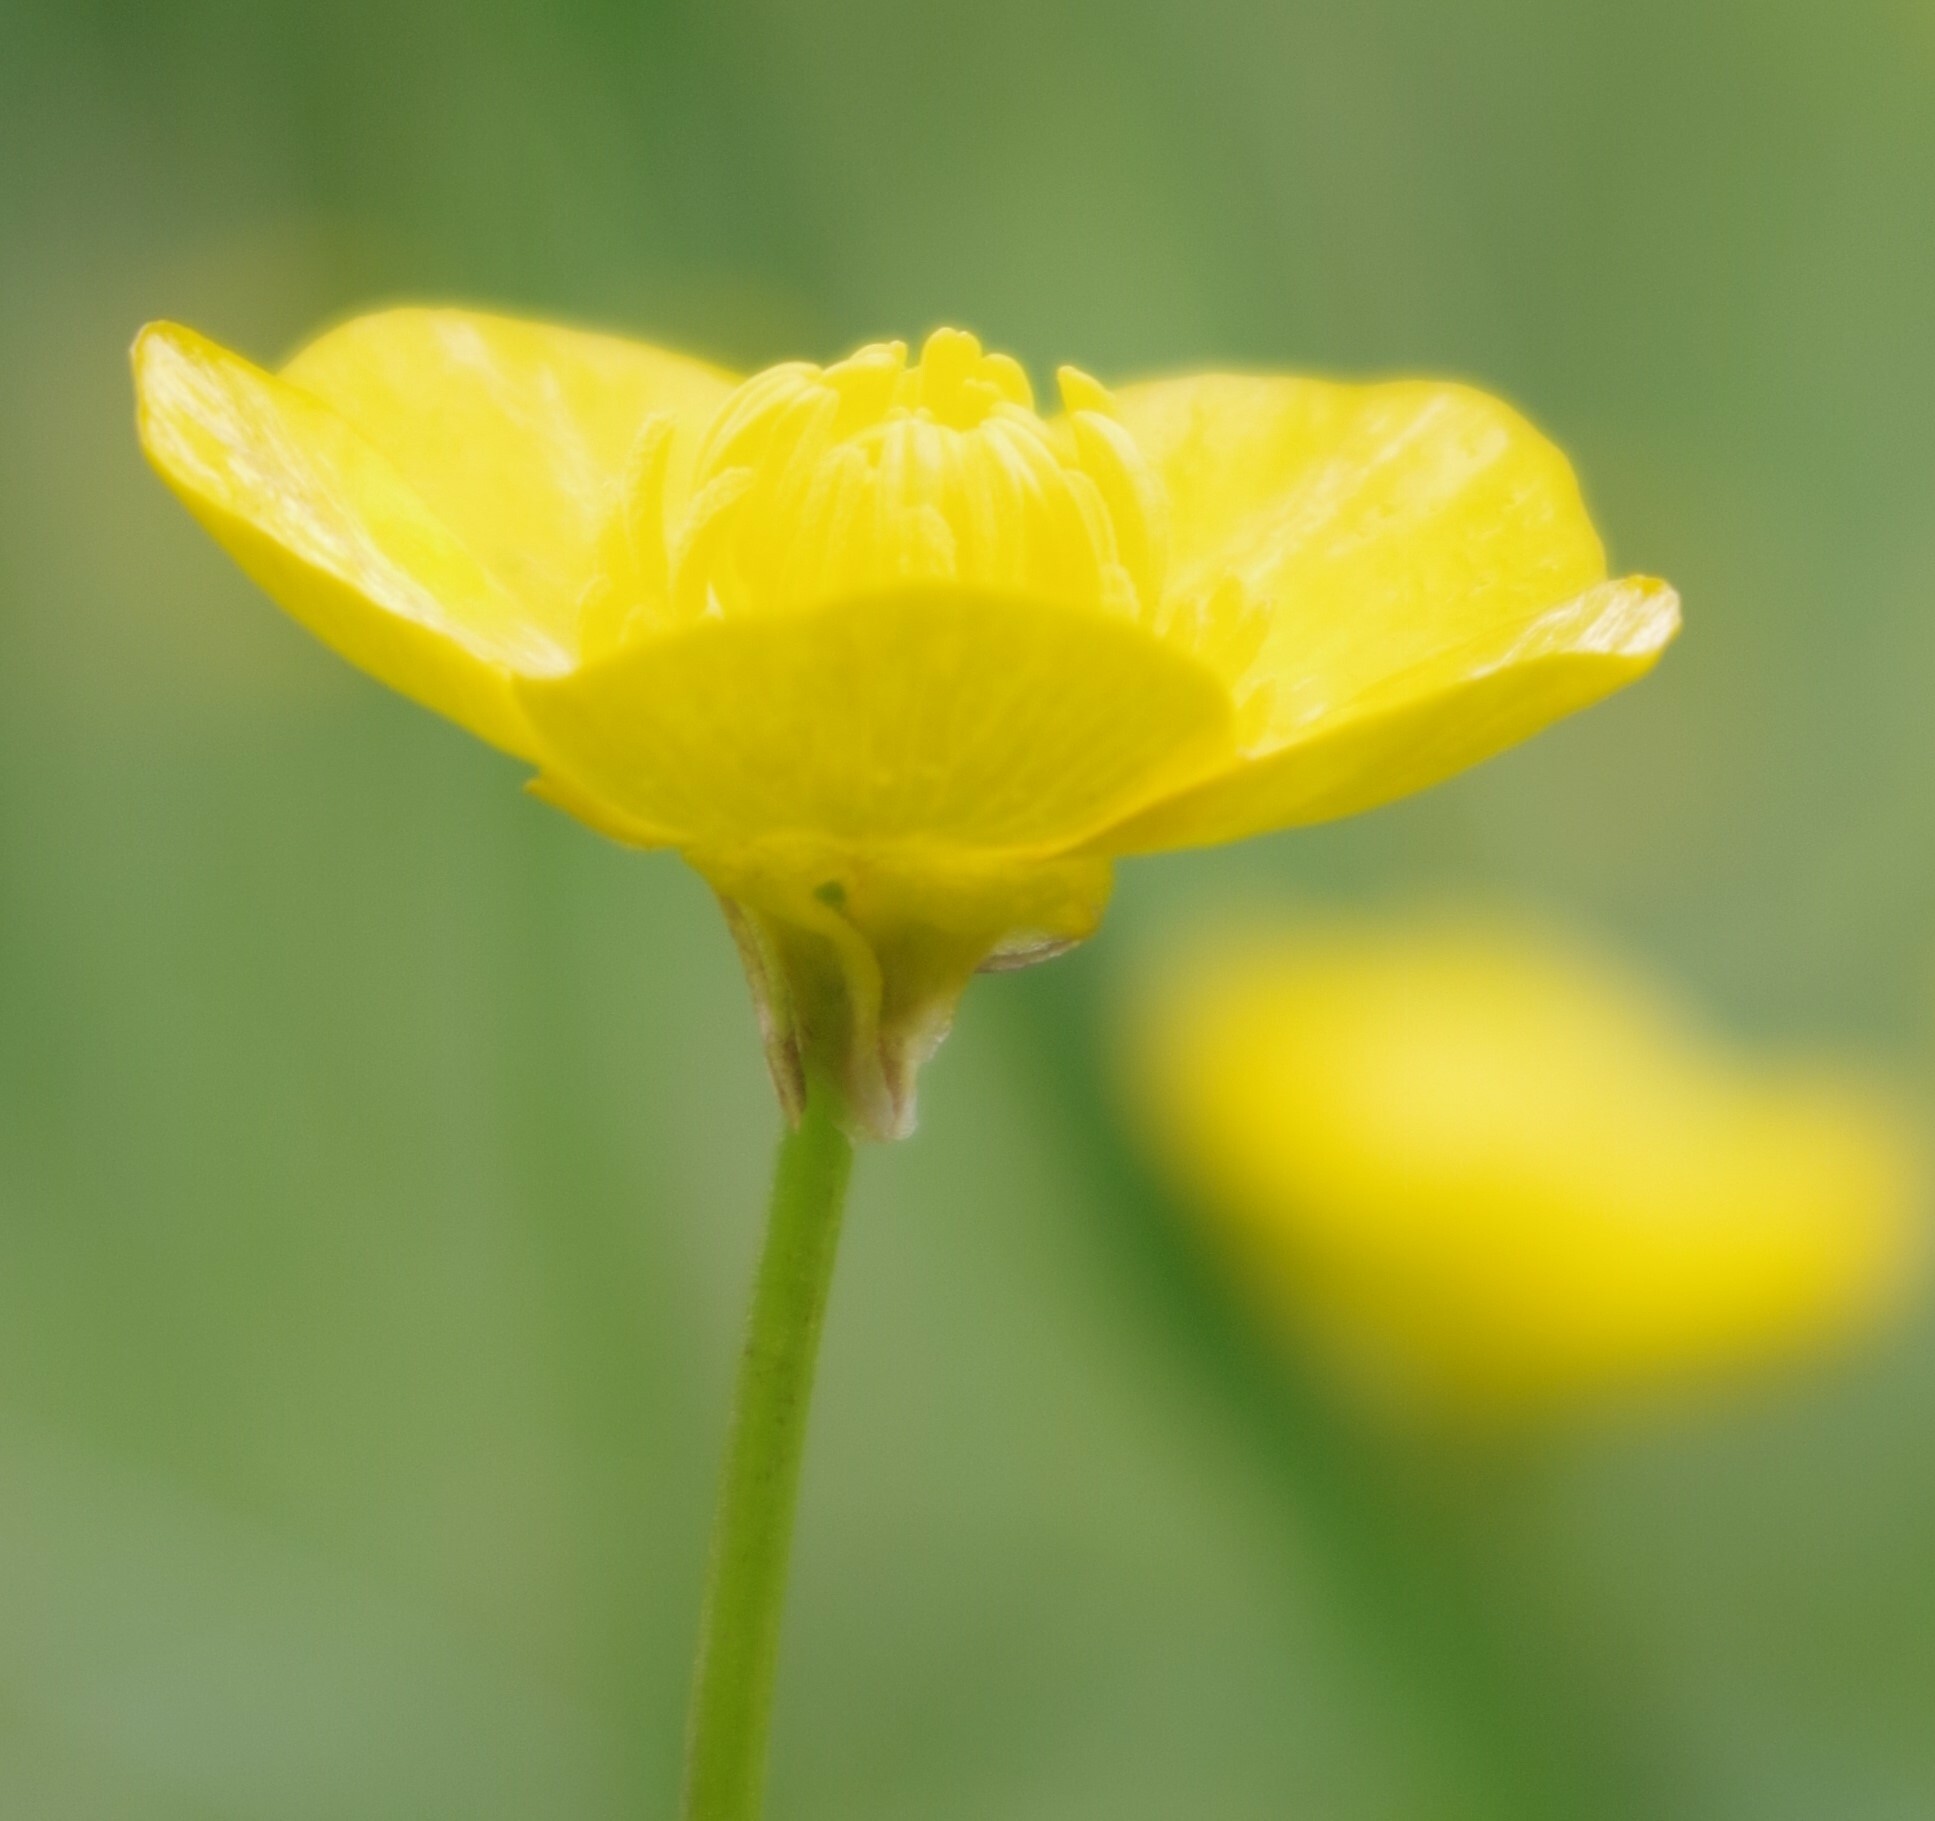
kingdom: Plantae
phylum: Tracheophyta
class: Magnoliopsida
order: Ranunculales
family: Ranunculaceae
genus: Ranunculus
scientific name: Ranunculus bulbosus
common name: Bulbous buttercup
